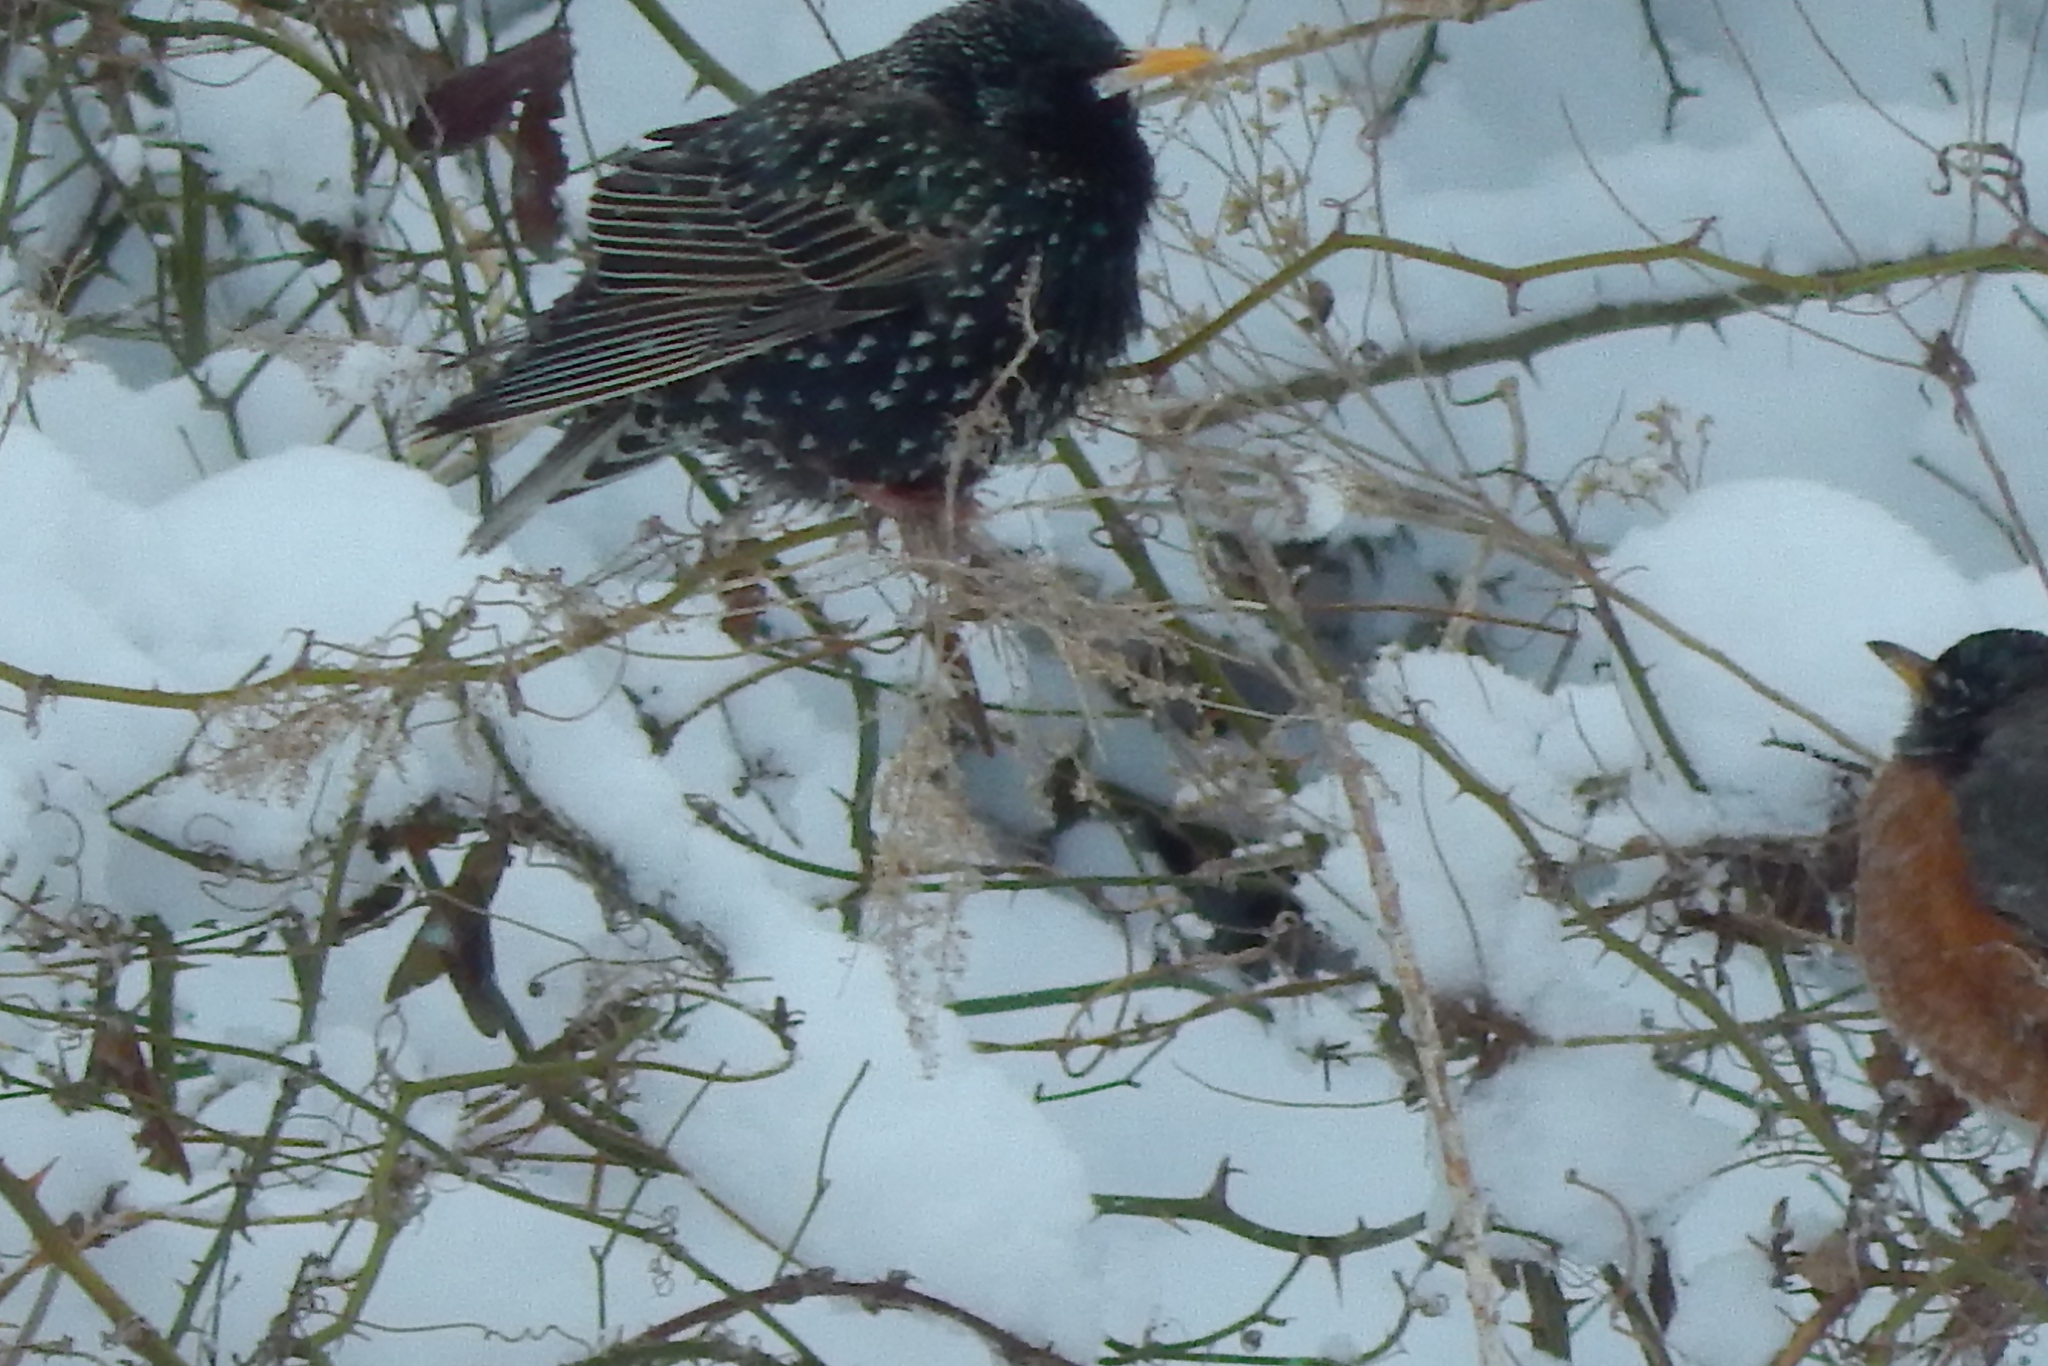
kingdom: Animalia
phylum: Chordata
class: Aves
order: Passeriformes
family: Sturnidae
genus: Sturnus
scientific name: Sturnus vulgaris
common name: Common starling
